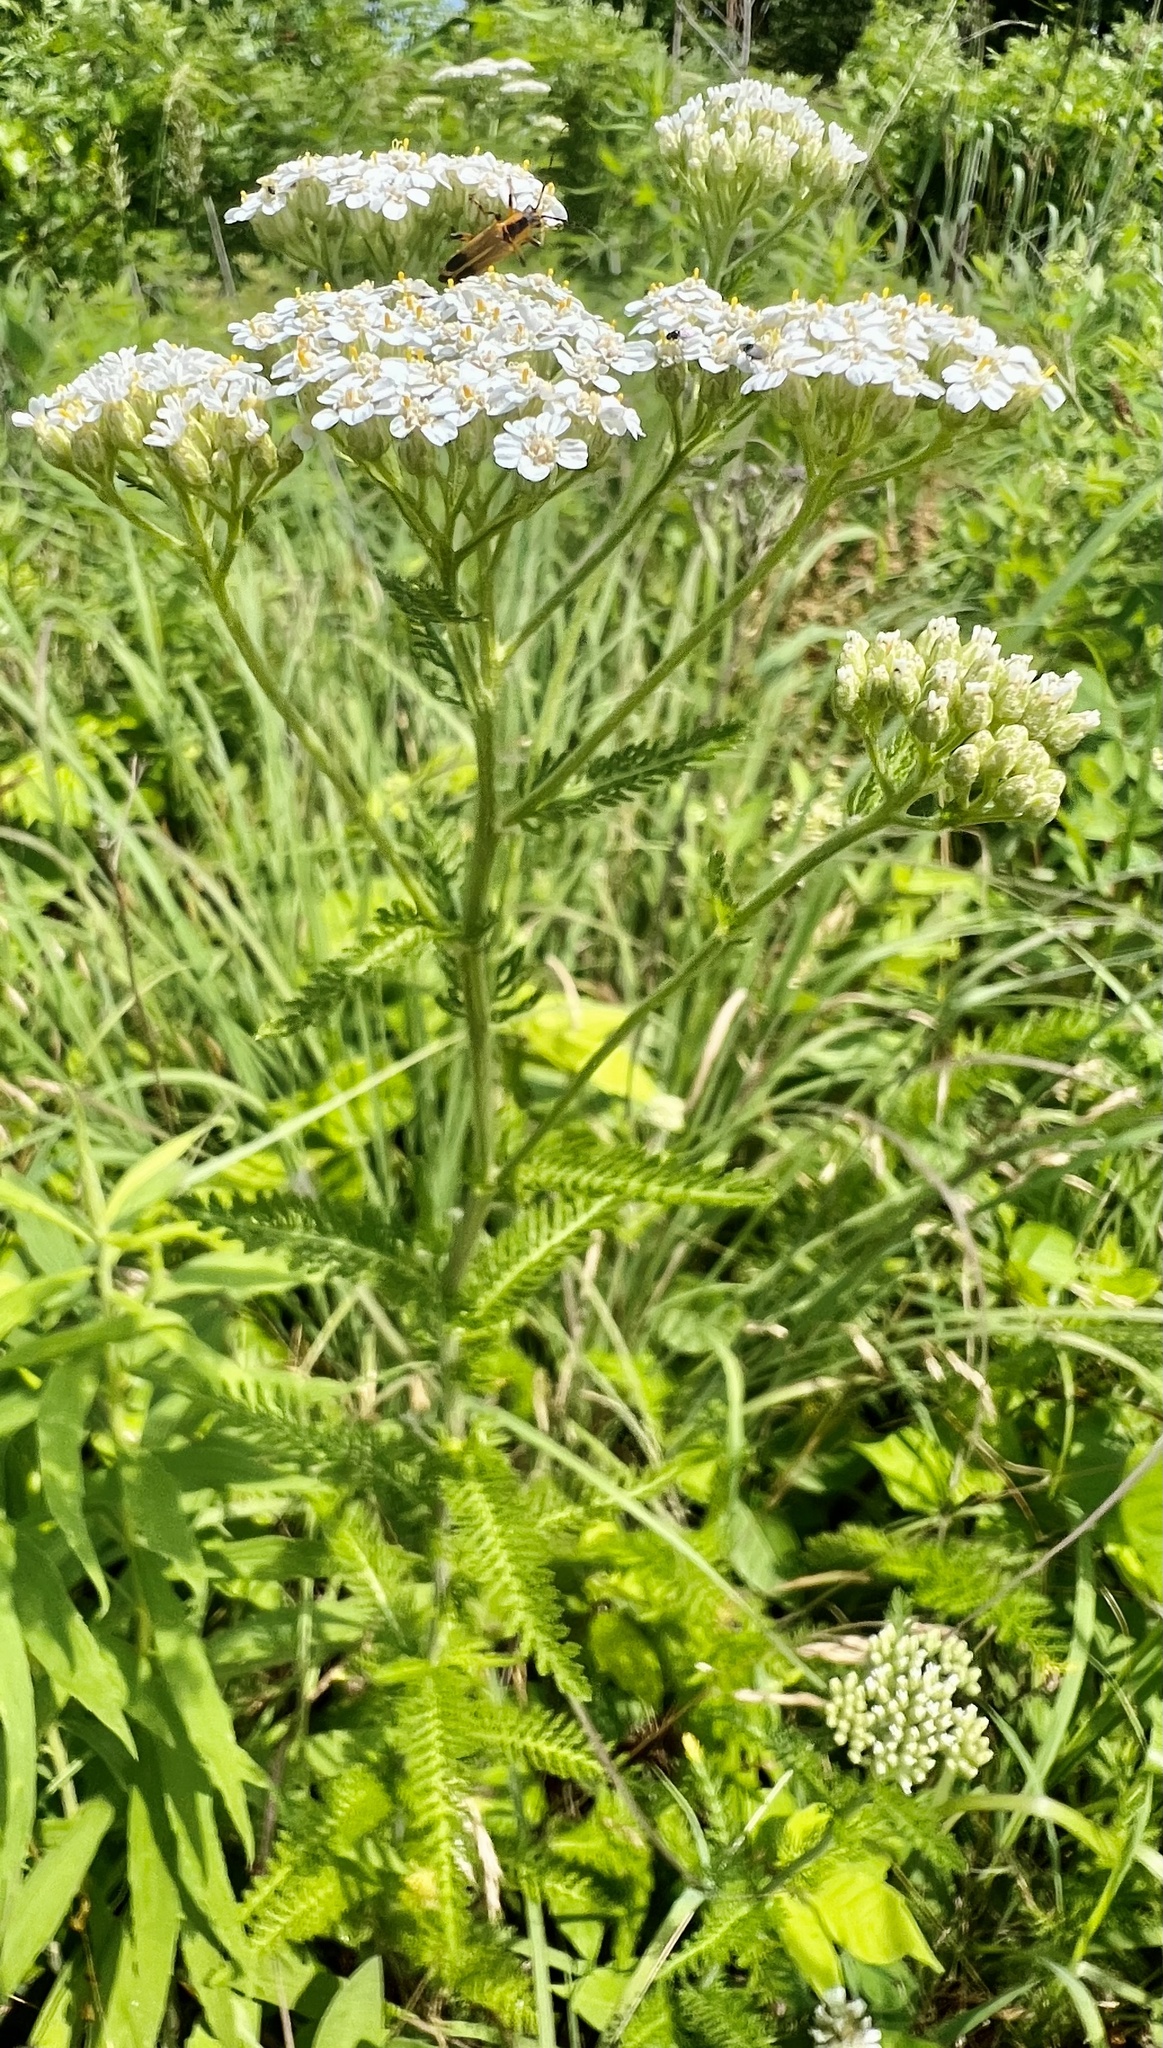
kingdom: Plantae
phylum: Tracheophyta
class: Magnoliopsida
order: Asterales
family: Asteraceae
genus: Achillea
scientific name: Achillea millefolium
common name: Yarrow
